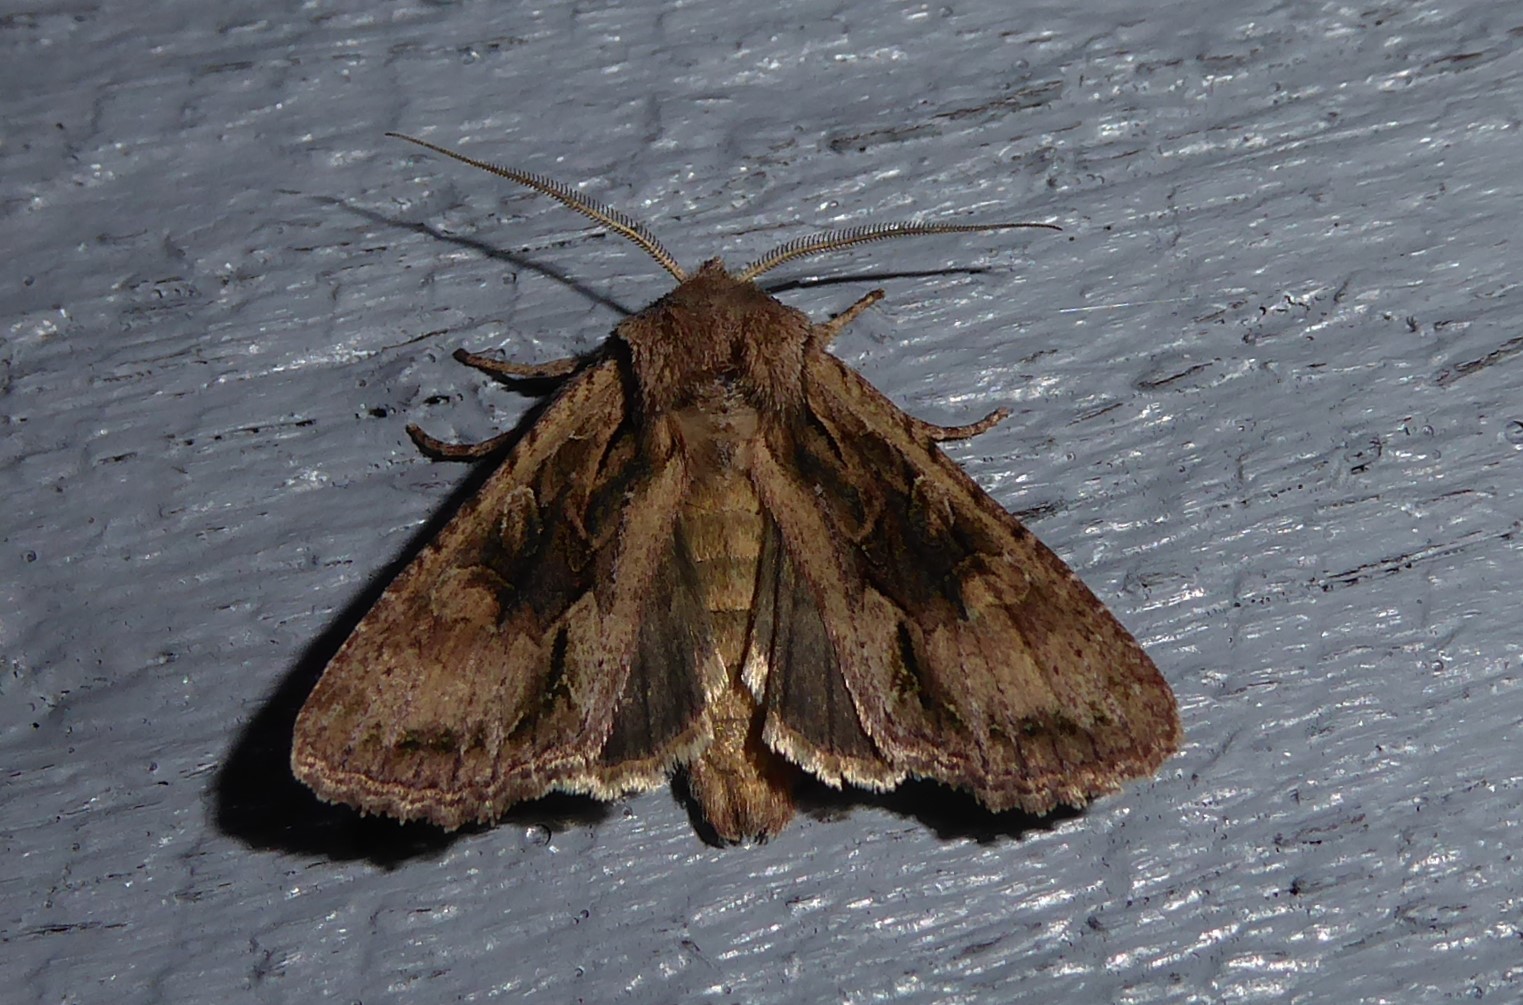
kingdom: Animalia
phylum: Arthropoda
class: Insecta
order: Lepidoptera
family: Noctuidae
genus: Ichneutica
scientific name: Ichneutica mutans
